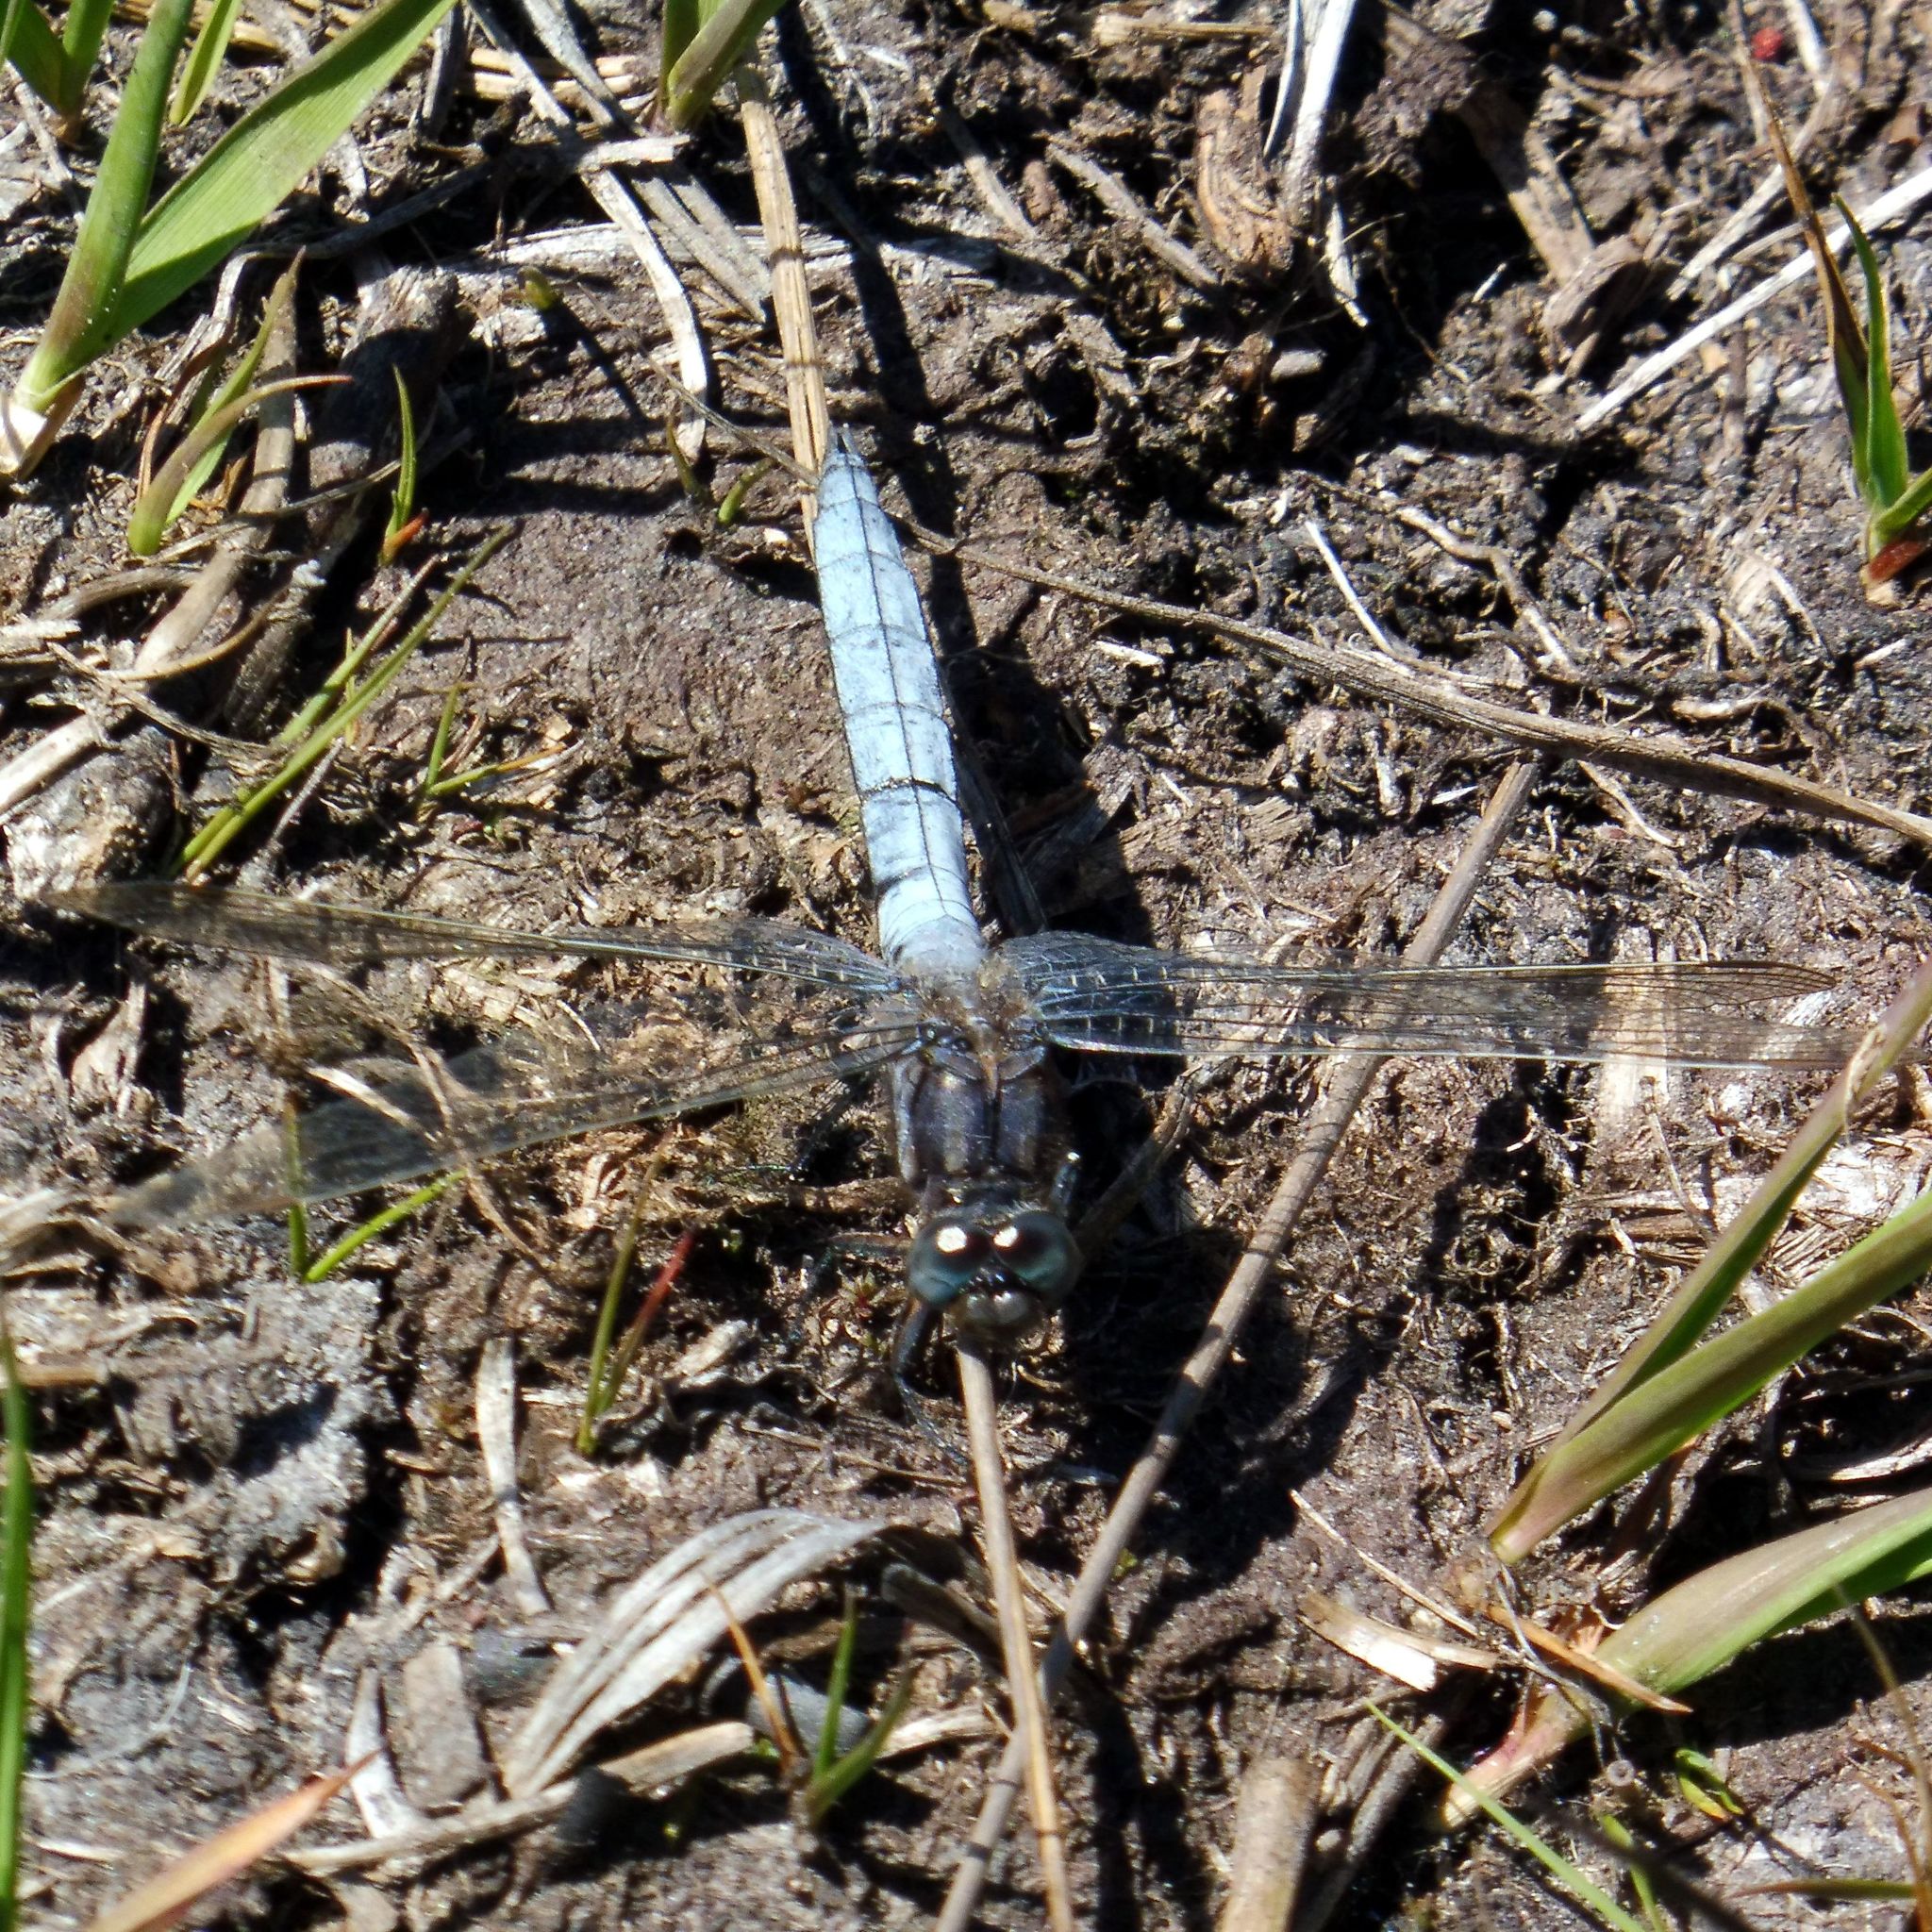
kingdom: Animalia
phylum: Arthropoda
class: Insecta
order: Odonata
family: Libellulidae
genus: Orthetrum
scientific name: Orthetrum coerulescens
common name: Keeled skimmer
